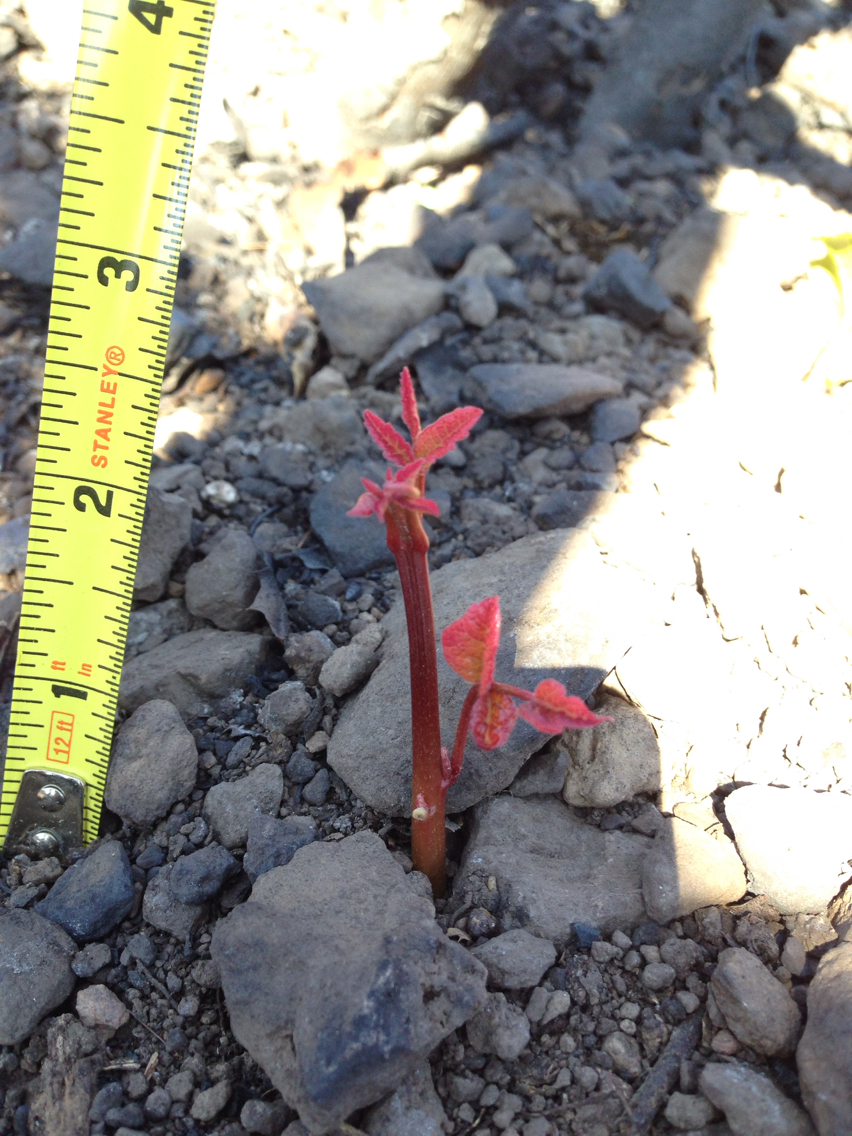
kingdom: Plantae
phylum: Tracheophyta
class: Magnoliopsida
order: Sapindales
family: Anacardiaceae
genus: Toxicodendron
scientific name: Toxicodendron diversilobum
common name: Pacific poison-oak
